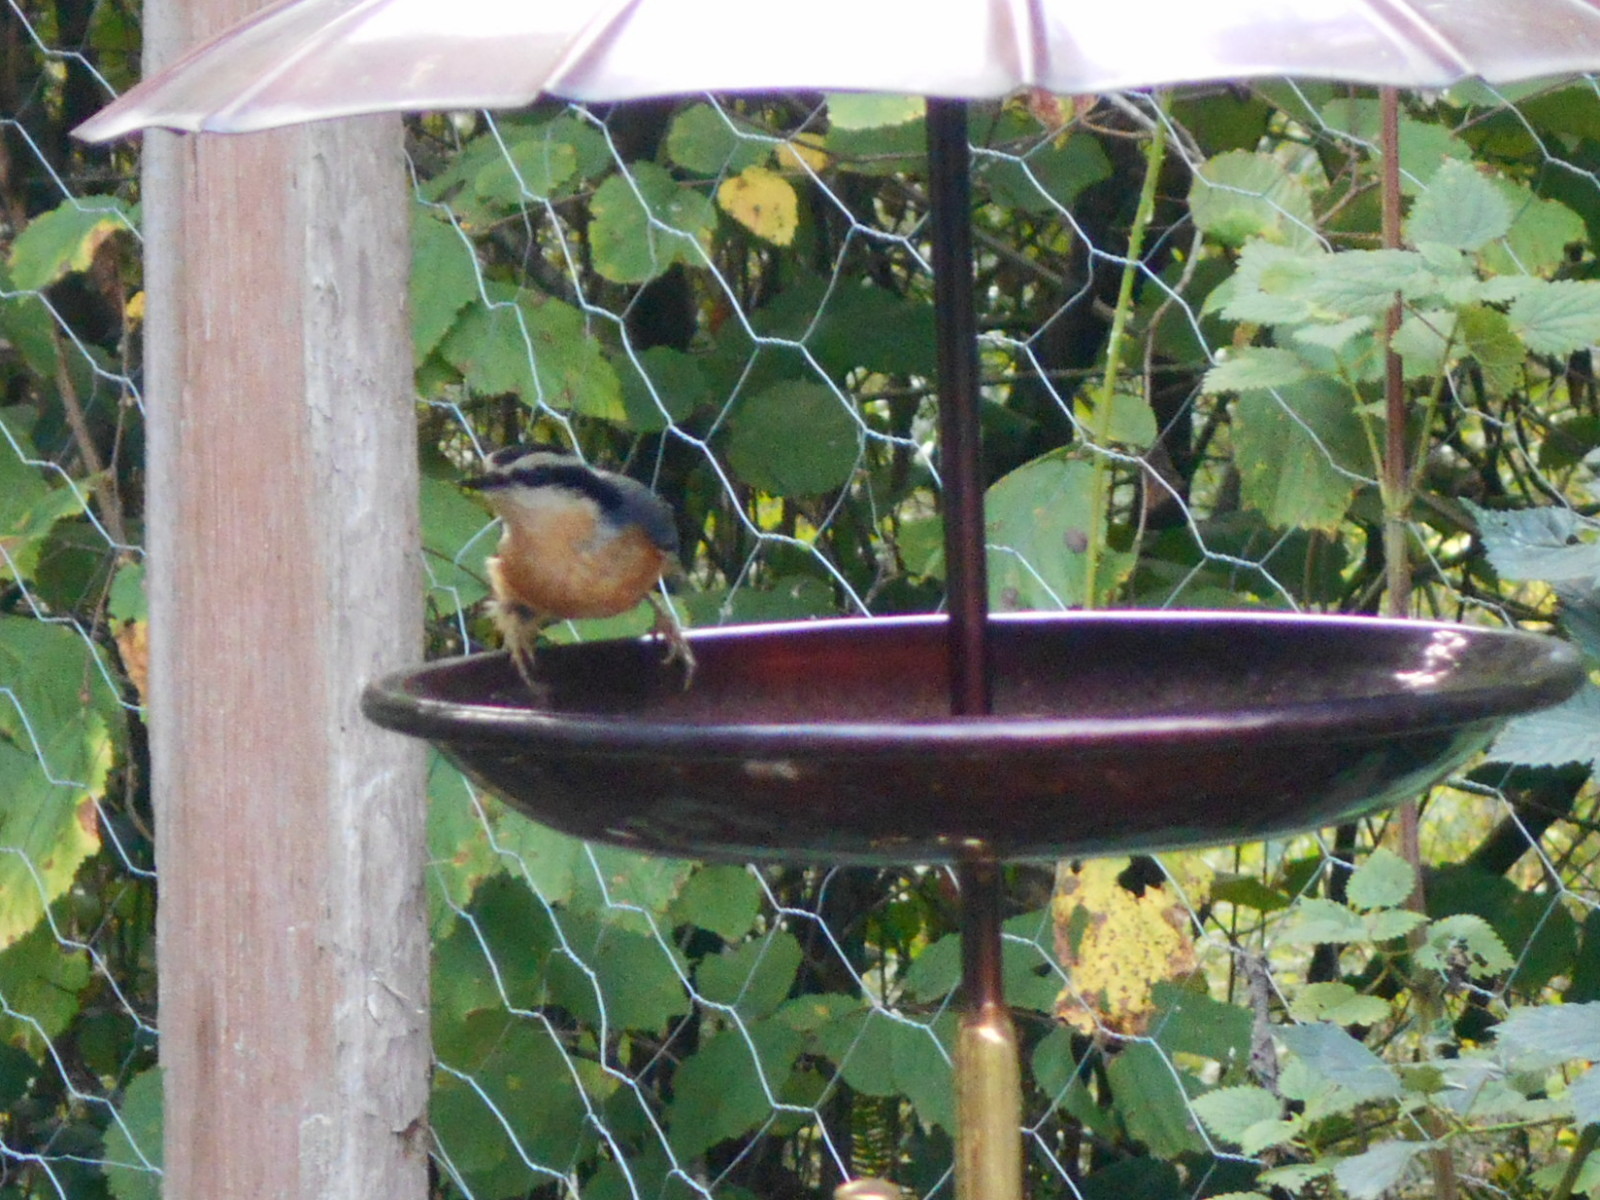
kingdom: Animalia
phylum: Chordata
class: Aves
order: Passeriformes
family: Sittidae
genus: Sitta
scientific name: Sitta canadensis
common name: Red-breasted nuthatch
